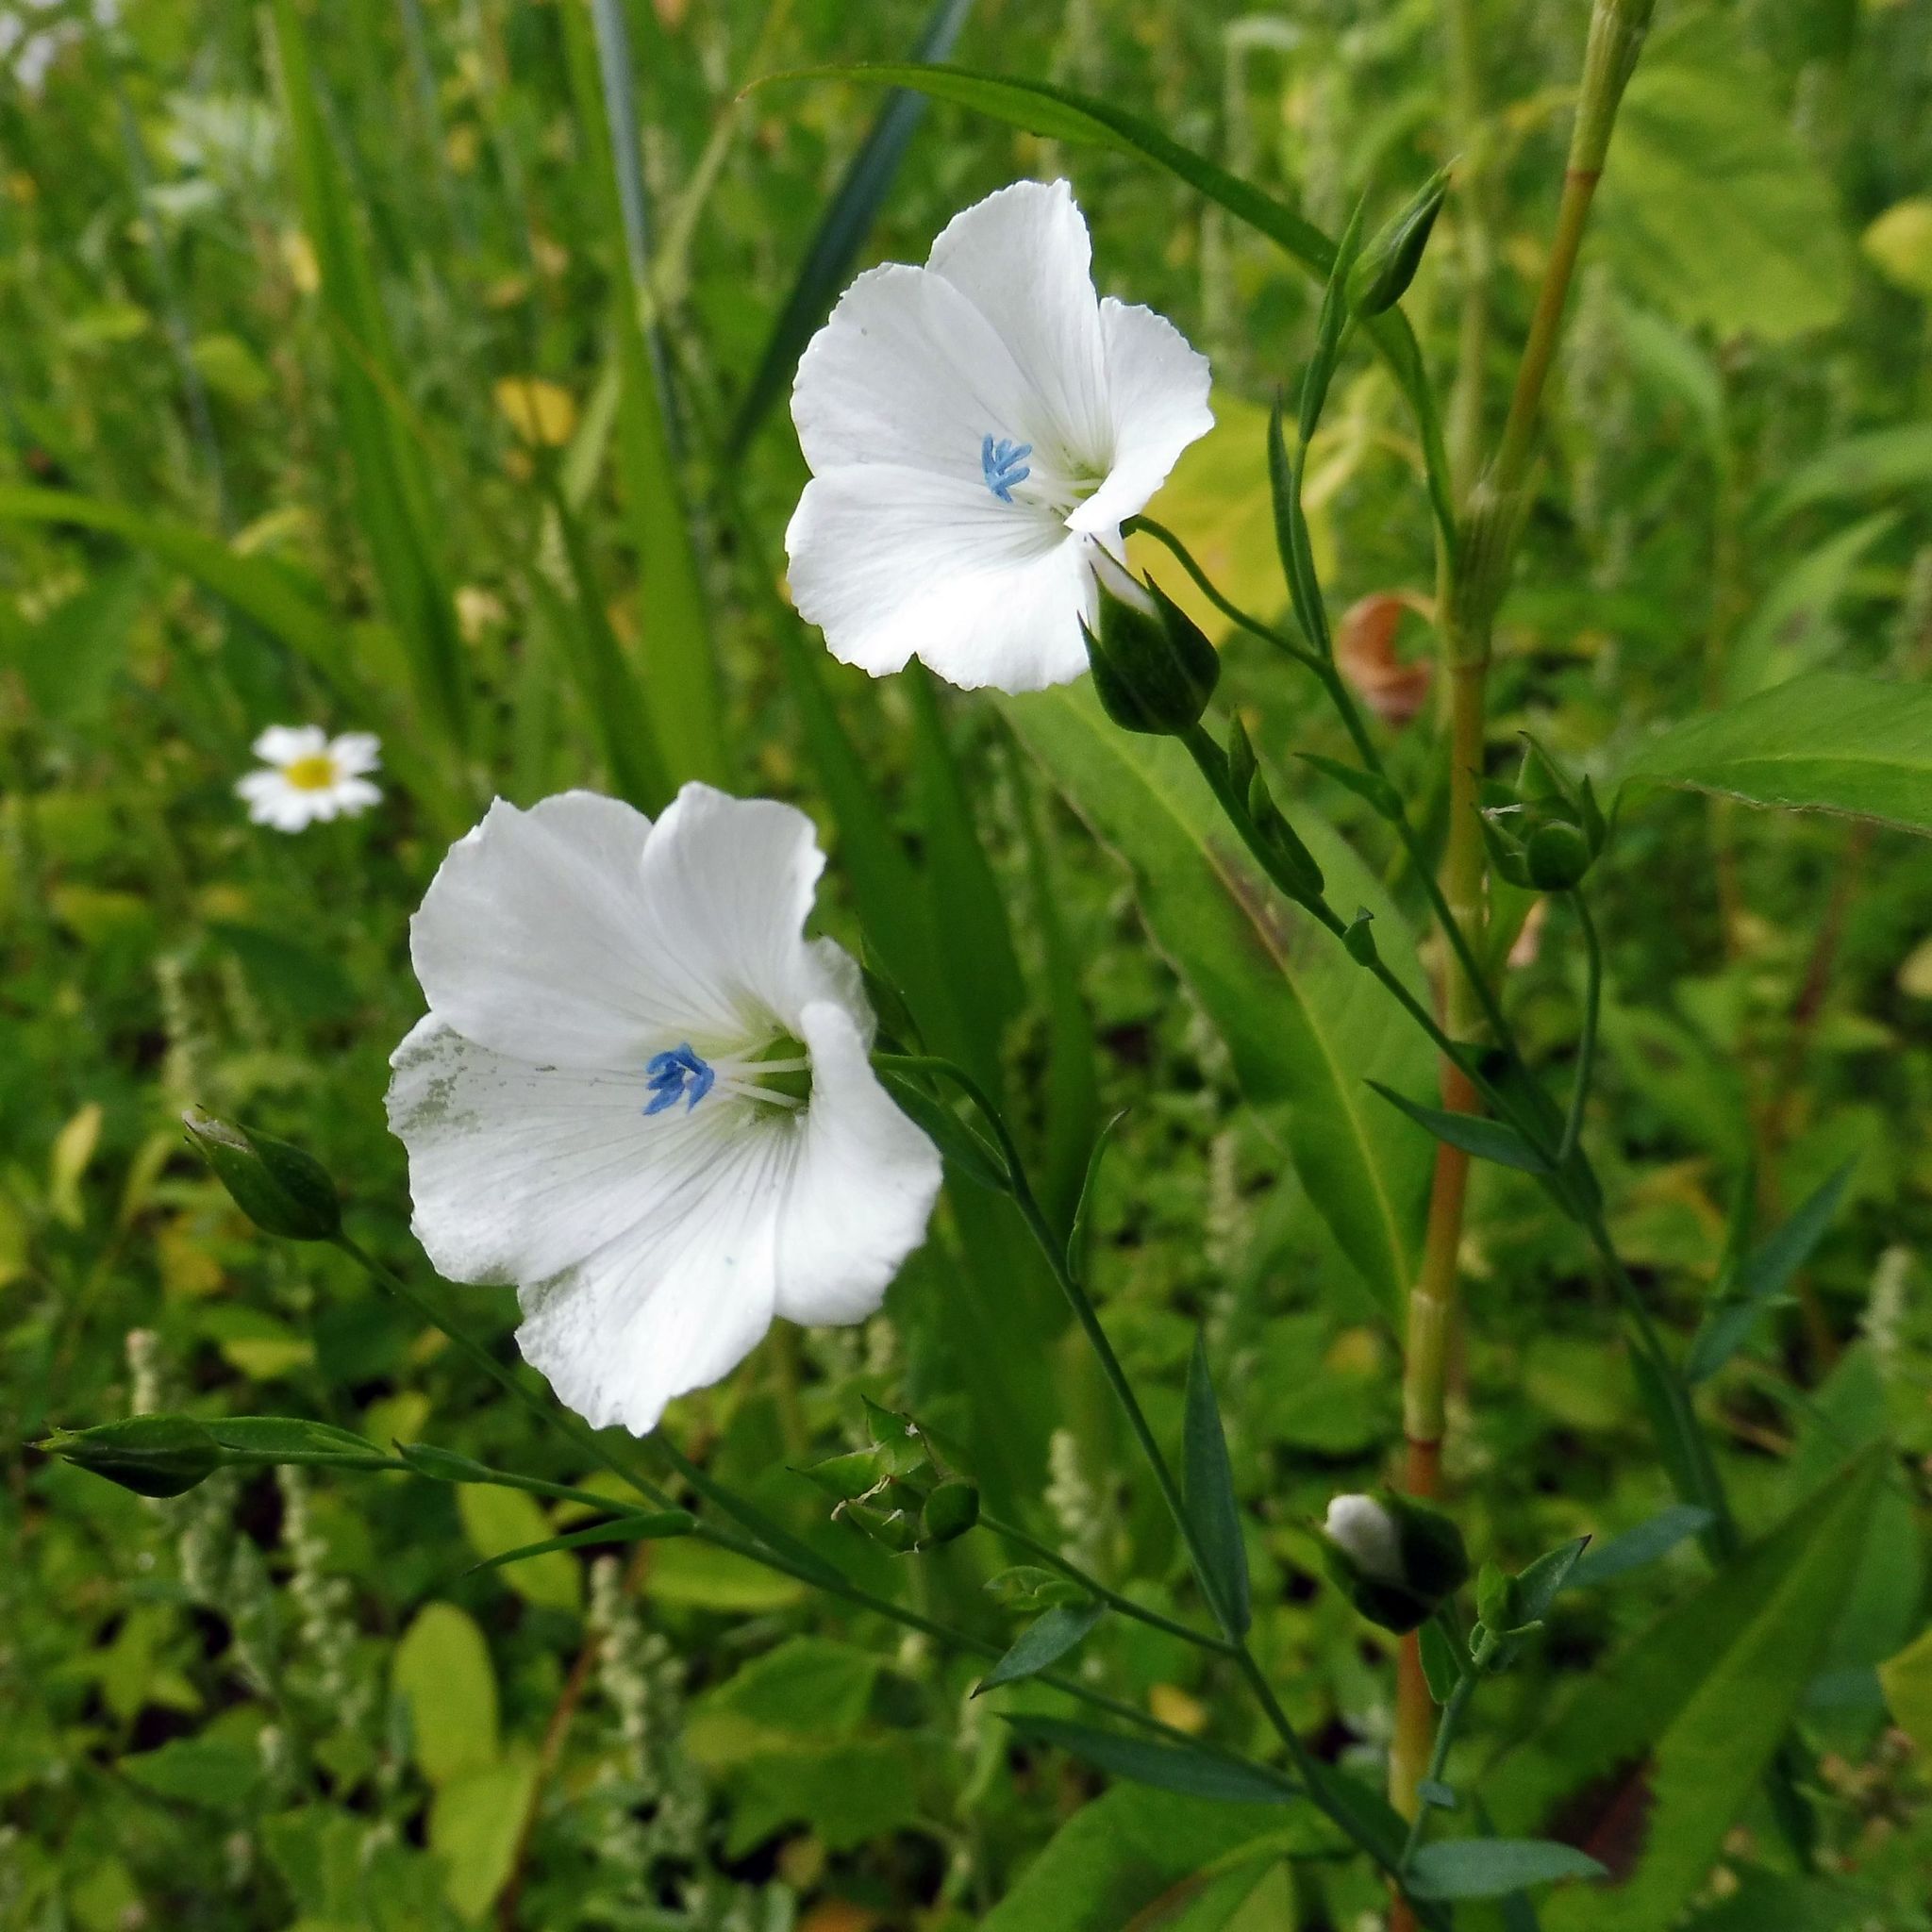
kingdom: Plantae
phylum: Tracheophyta
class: Magnoliopsida
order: Malpighiales
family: Linaceae
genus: Linum
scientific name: Linum usitatissimum
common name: Flax
